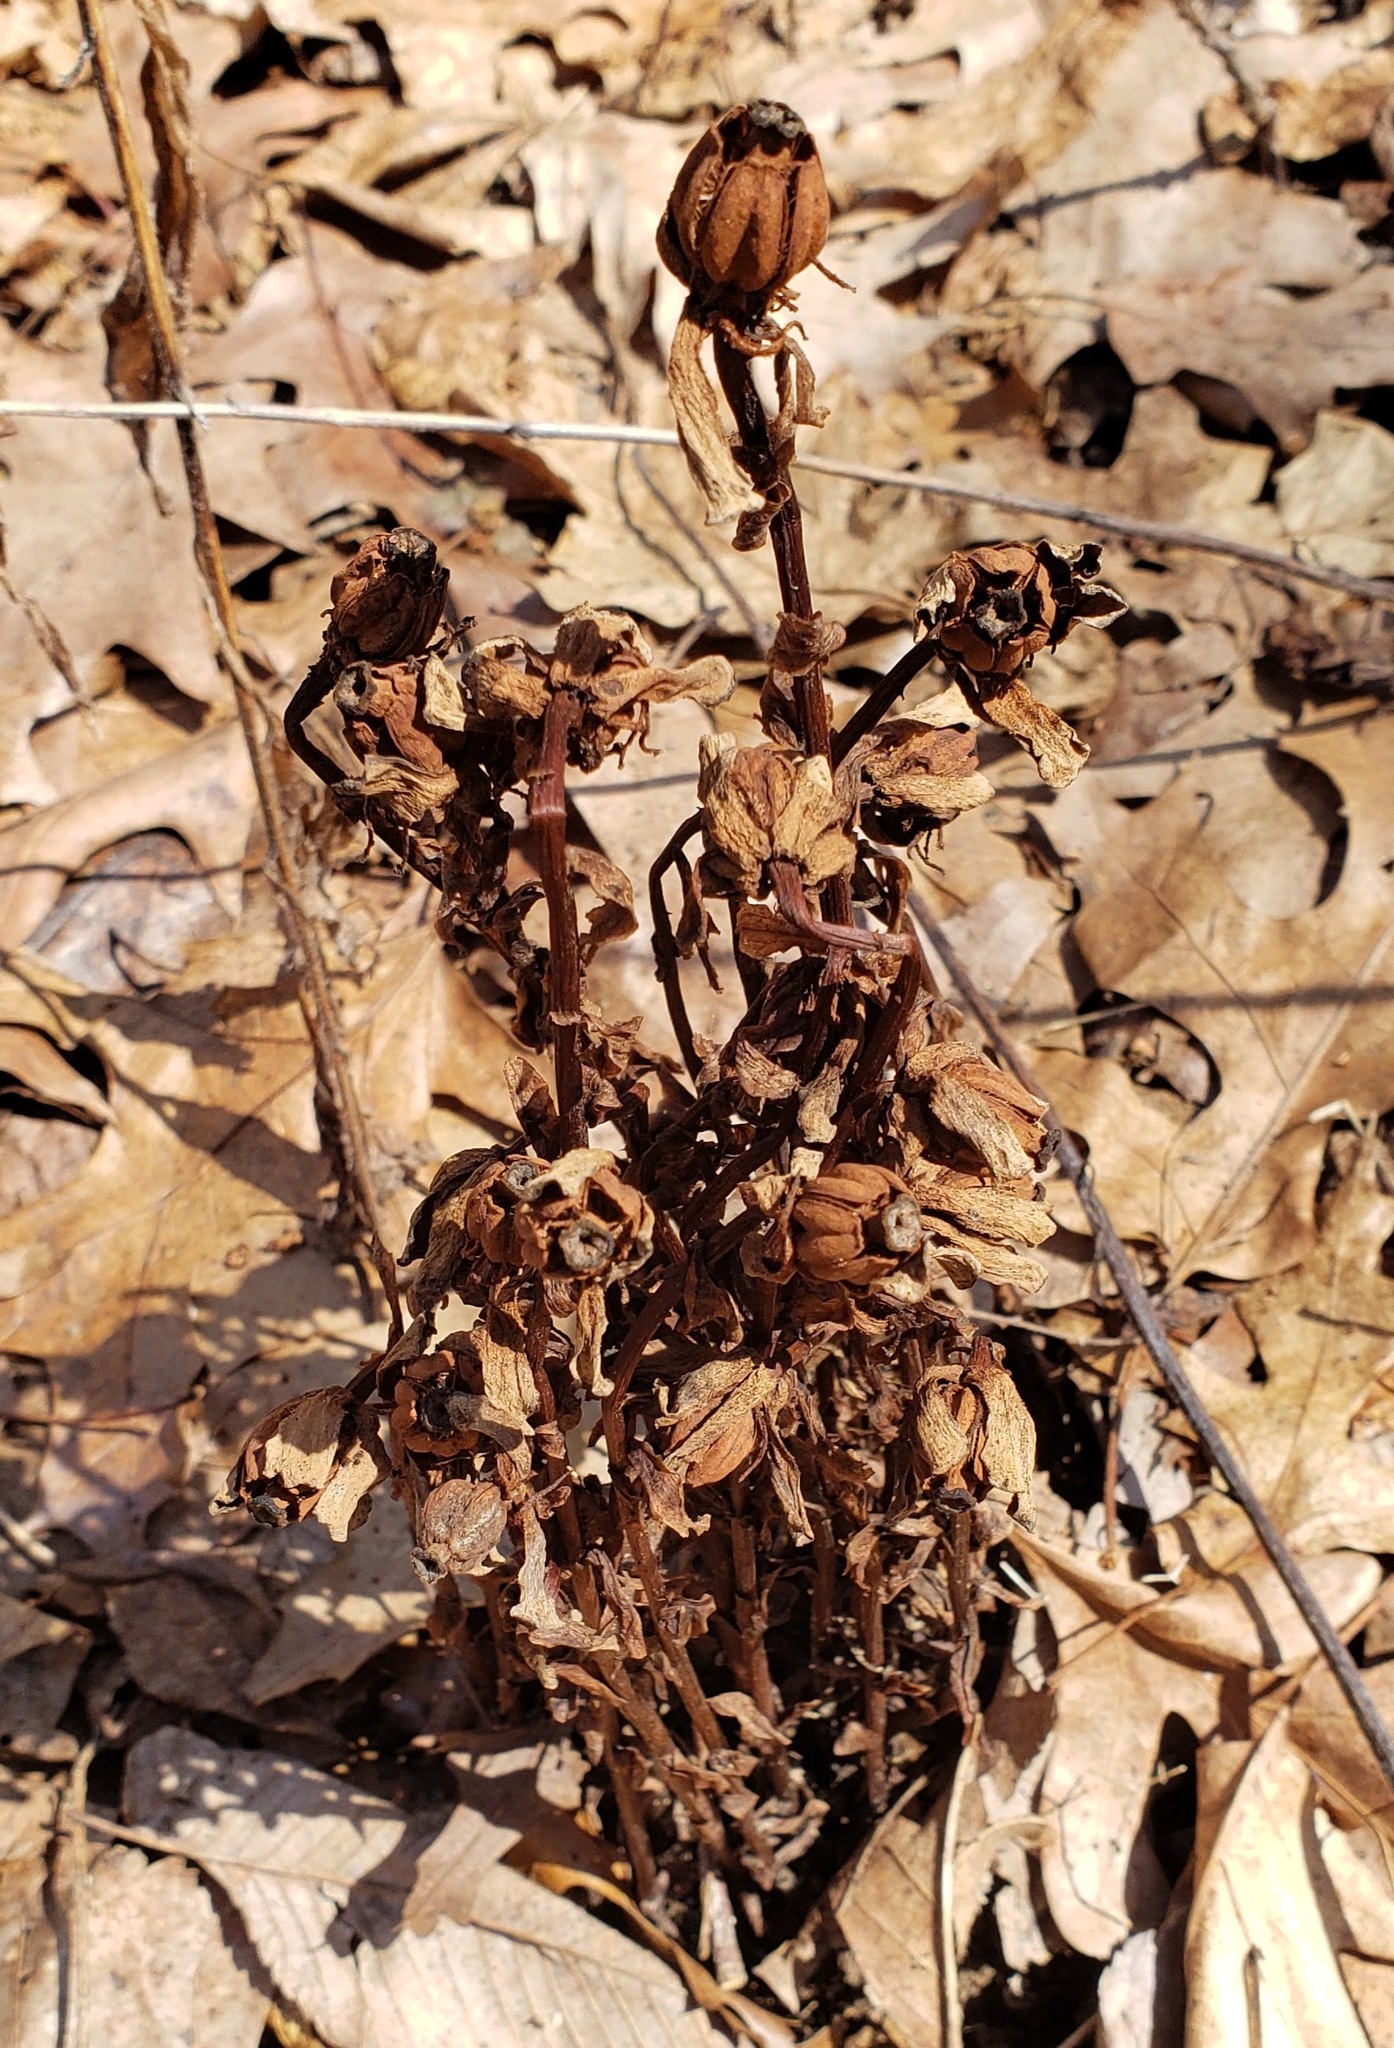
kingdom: Plantae
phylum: Tracheophyta
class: Magnoliopsida
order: Ericales
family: Ericaceae
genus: Monotropa
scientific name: Monotropa uniflora
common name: Convulsion root
